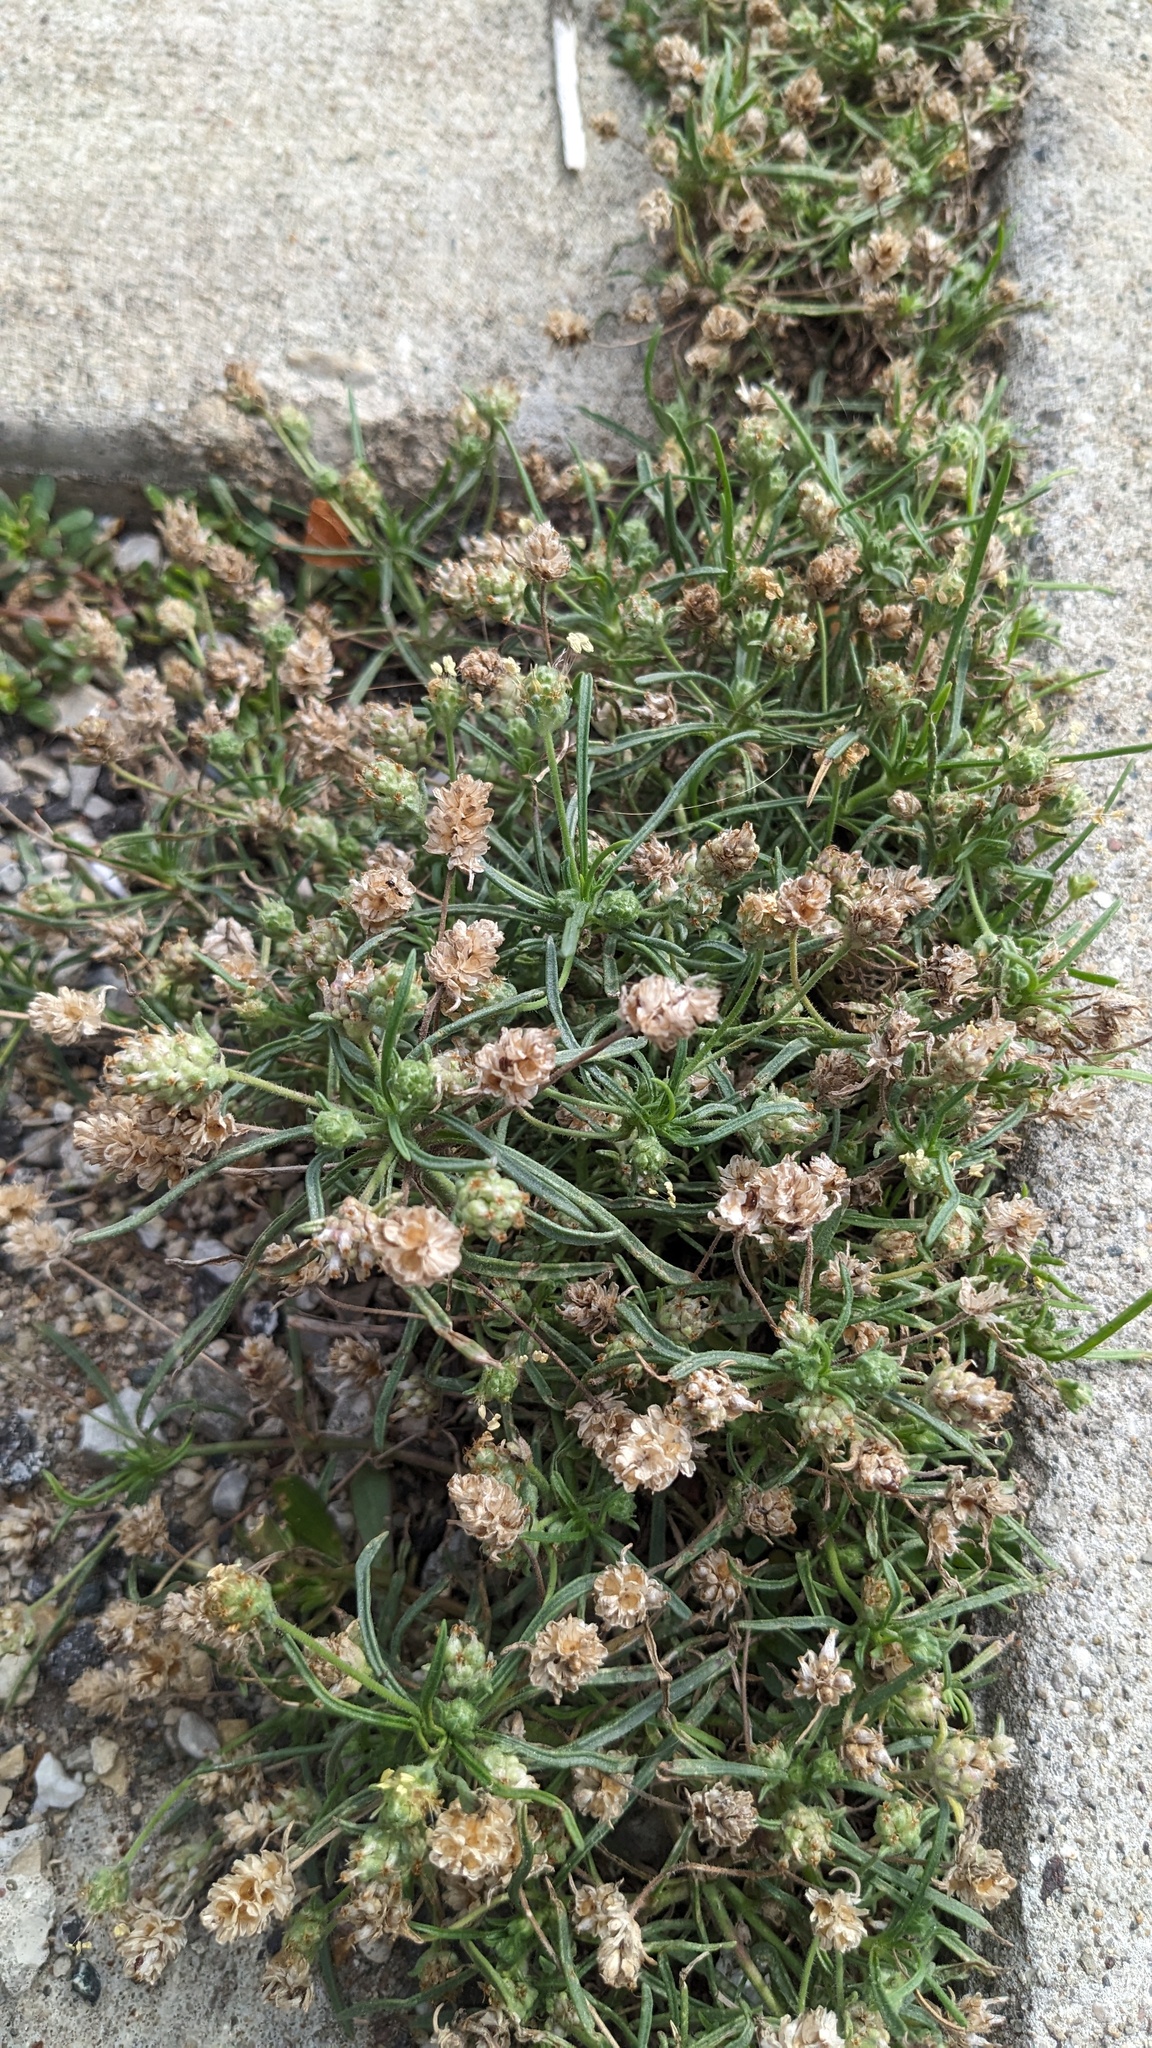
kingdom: Plantae
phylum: Tracheophyta
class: Magnoliopsida
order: Lamiales
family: Plantaginaceae
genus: Plantago
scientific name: Plantago arenaria
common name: Branched plantain
